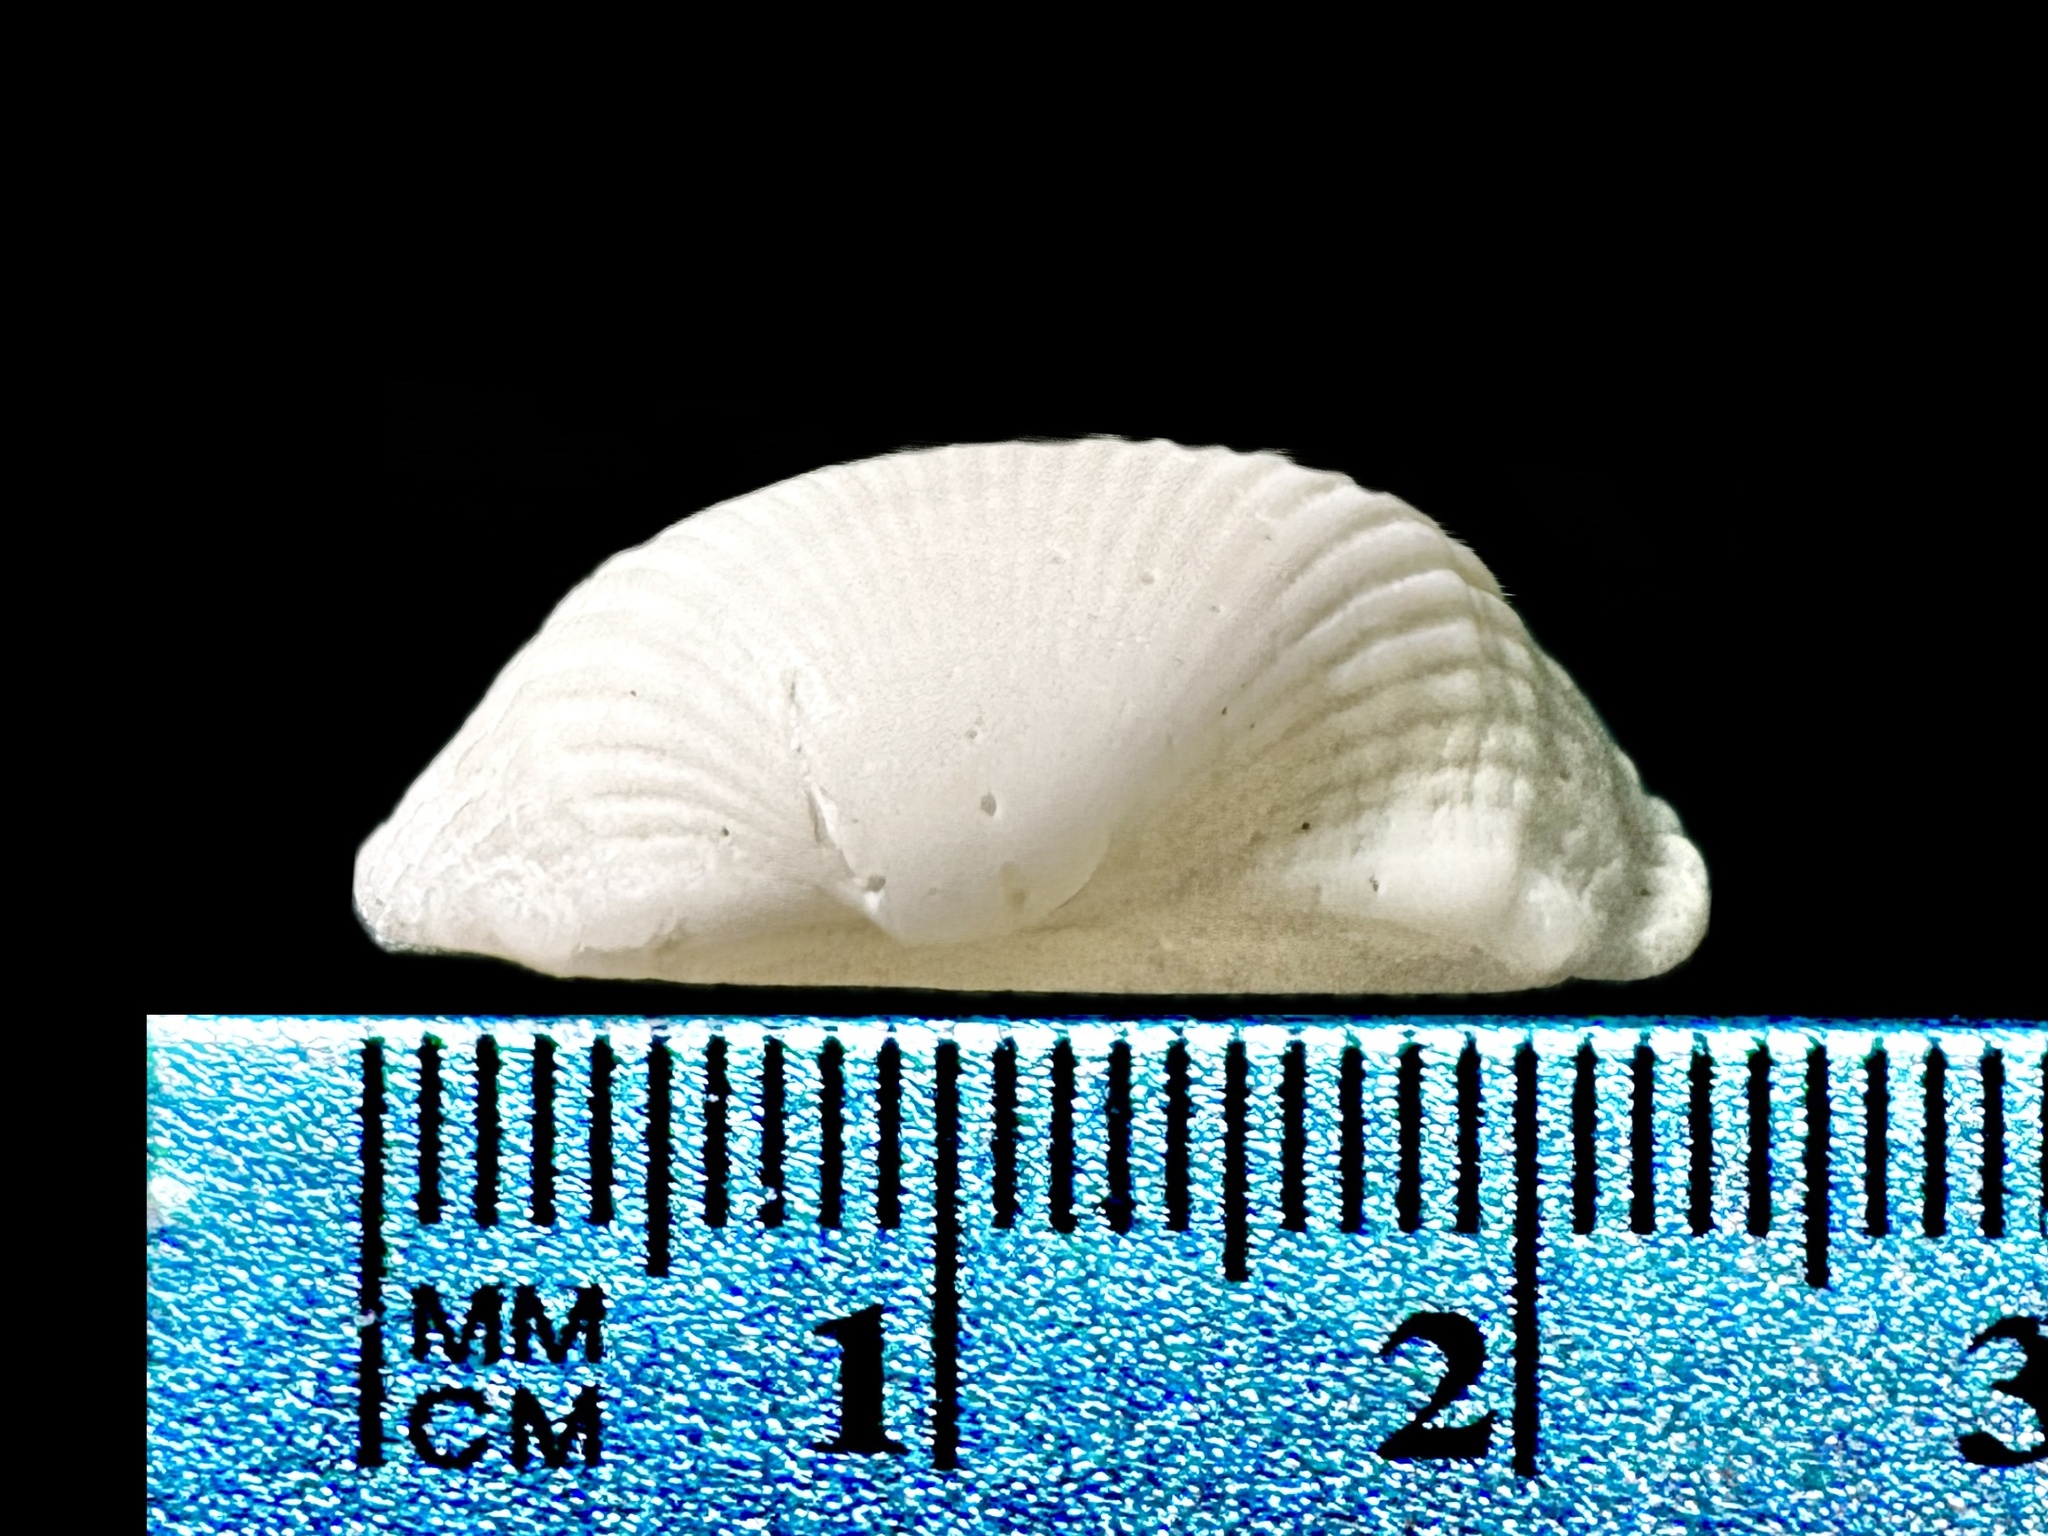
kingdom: Animalia
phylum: Mollusca
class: Bivalvia
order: Arcida
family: Arcidae
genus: Anadara
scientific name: Anadara notabilis
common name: Eared ark
